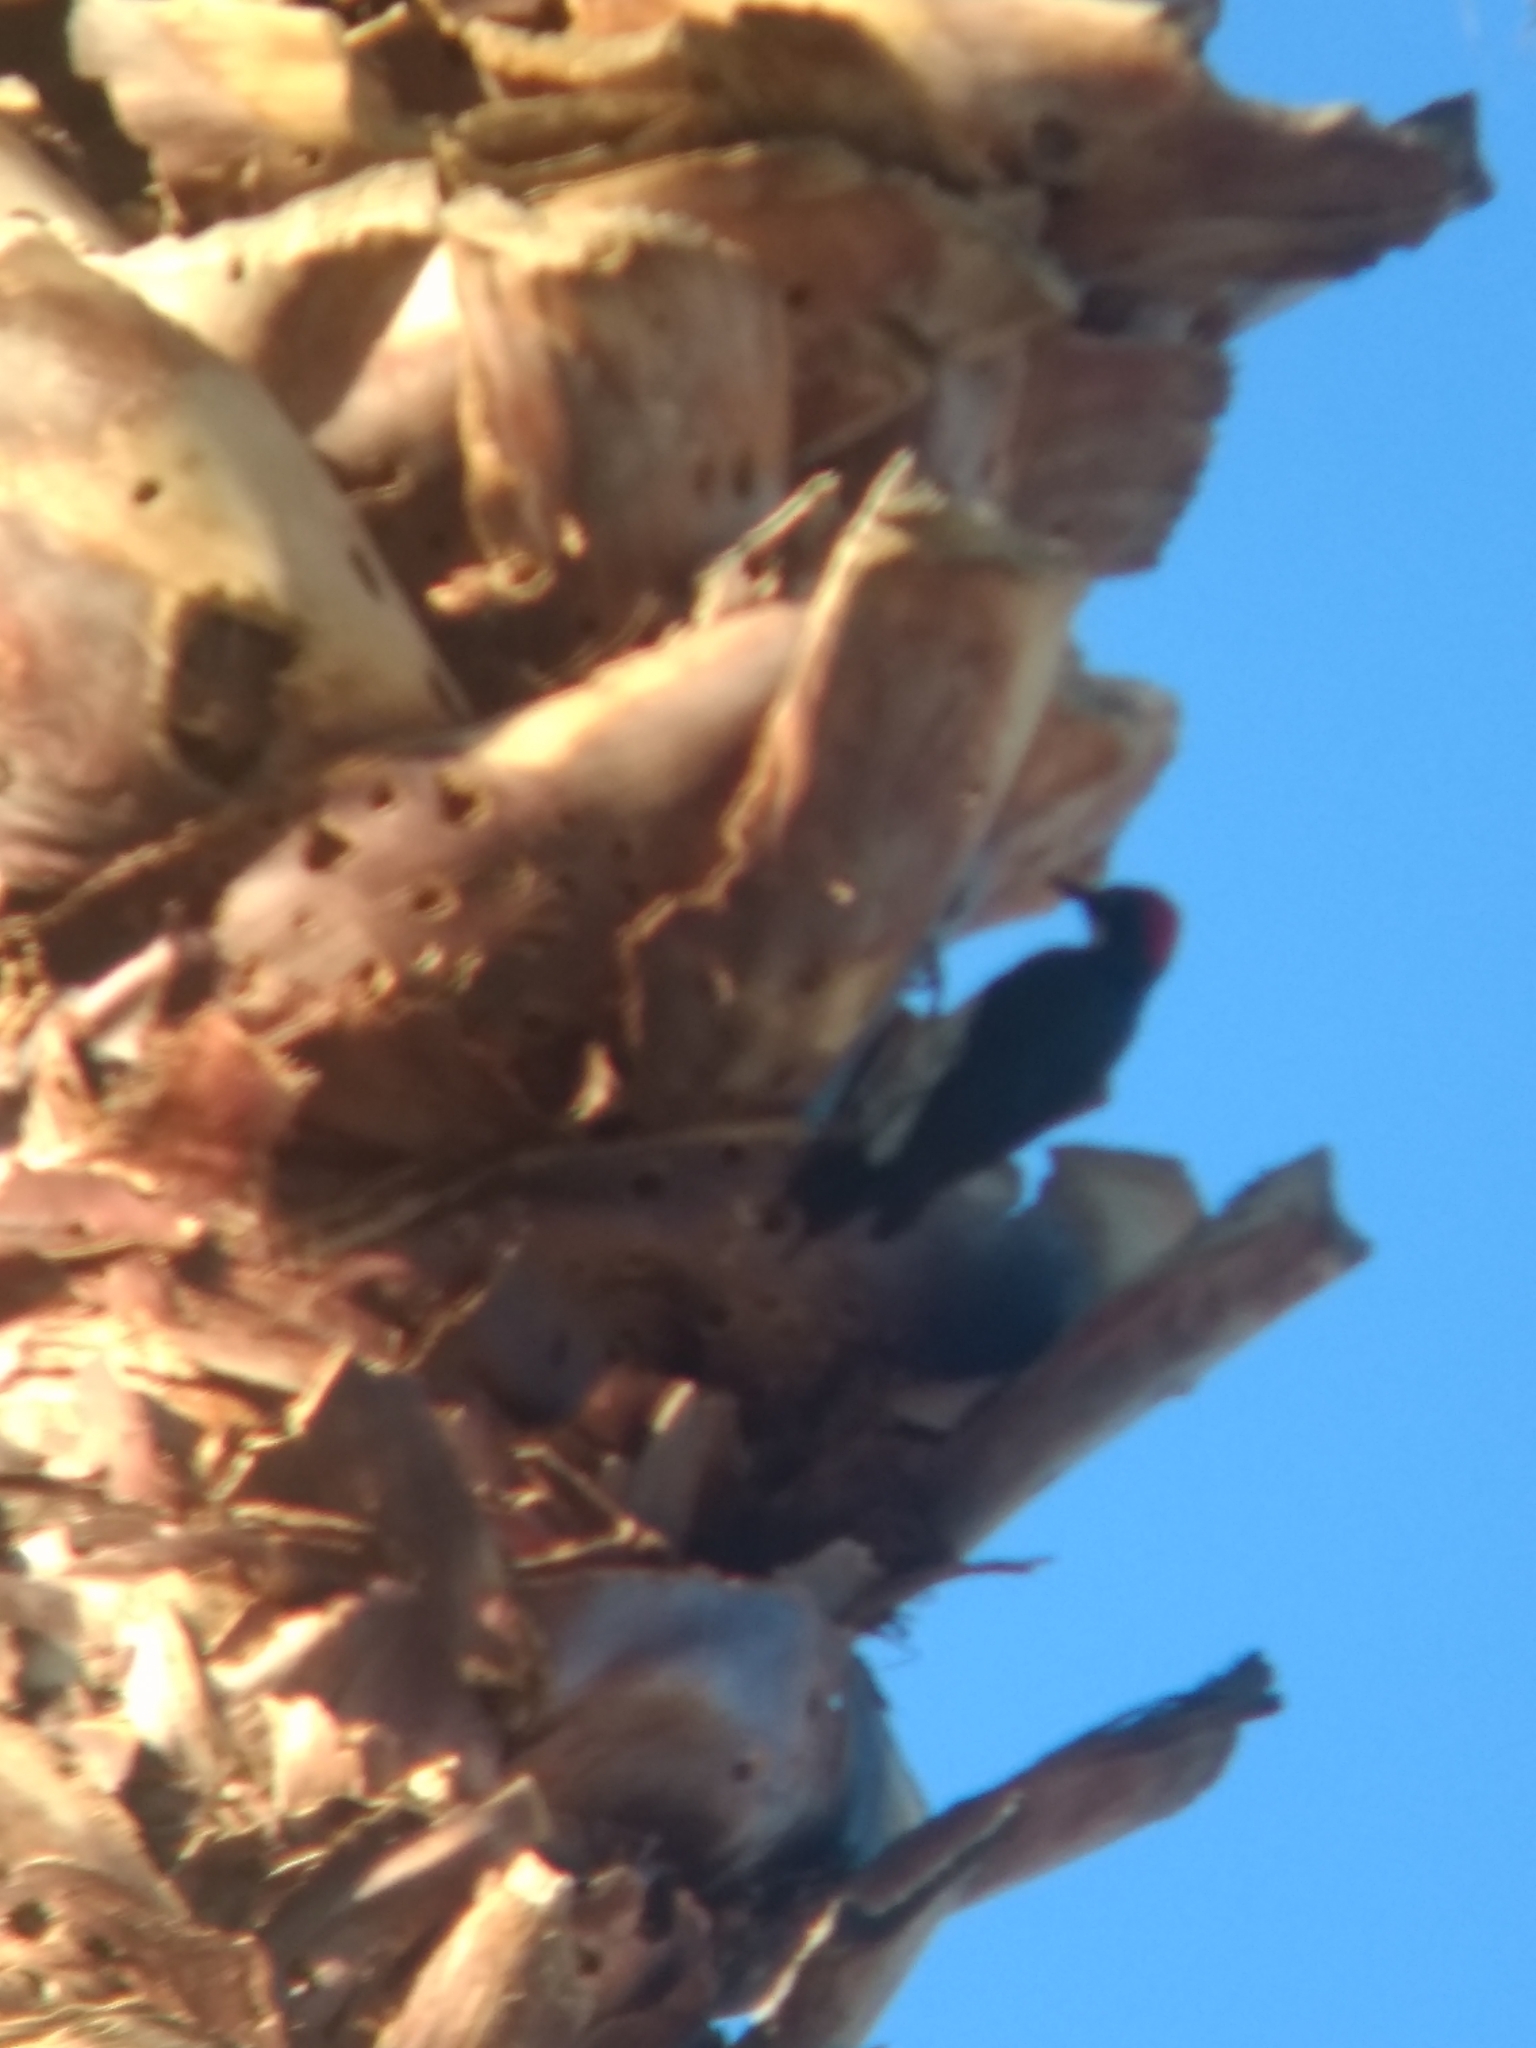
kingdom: Animalia
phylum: Chordata
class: Aves
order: Piciformes
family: Picidae
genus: Melanerpes
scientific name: Melanerpes formicivorus
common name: Acorn woodpecker
